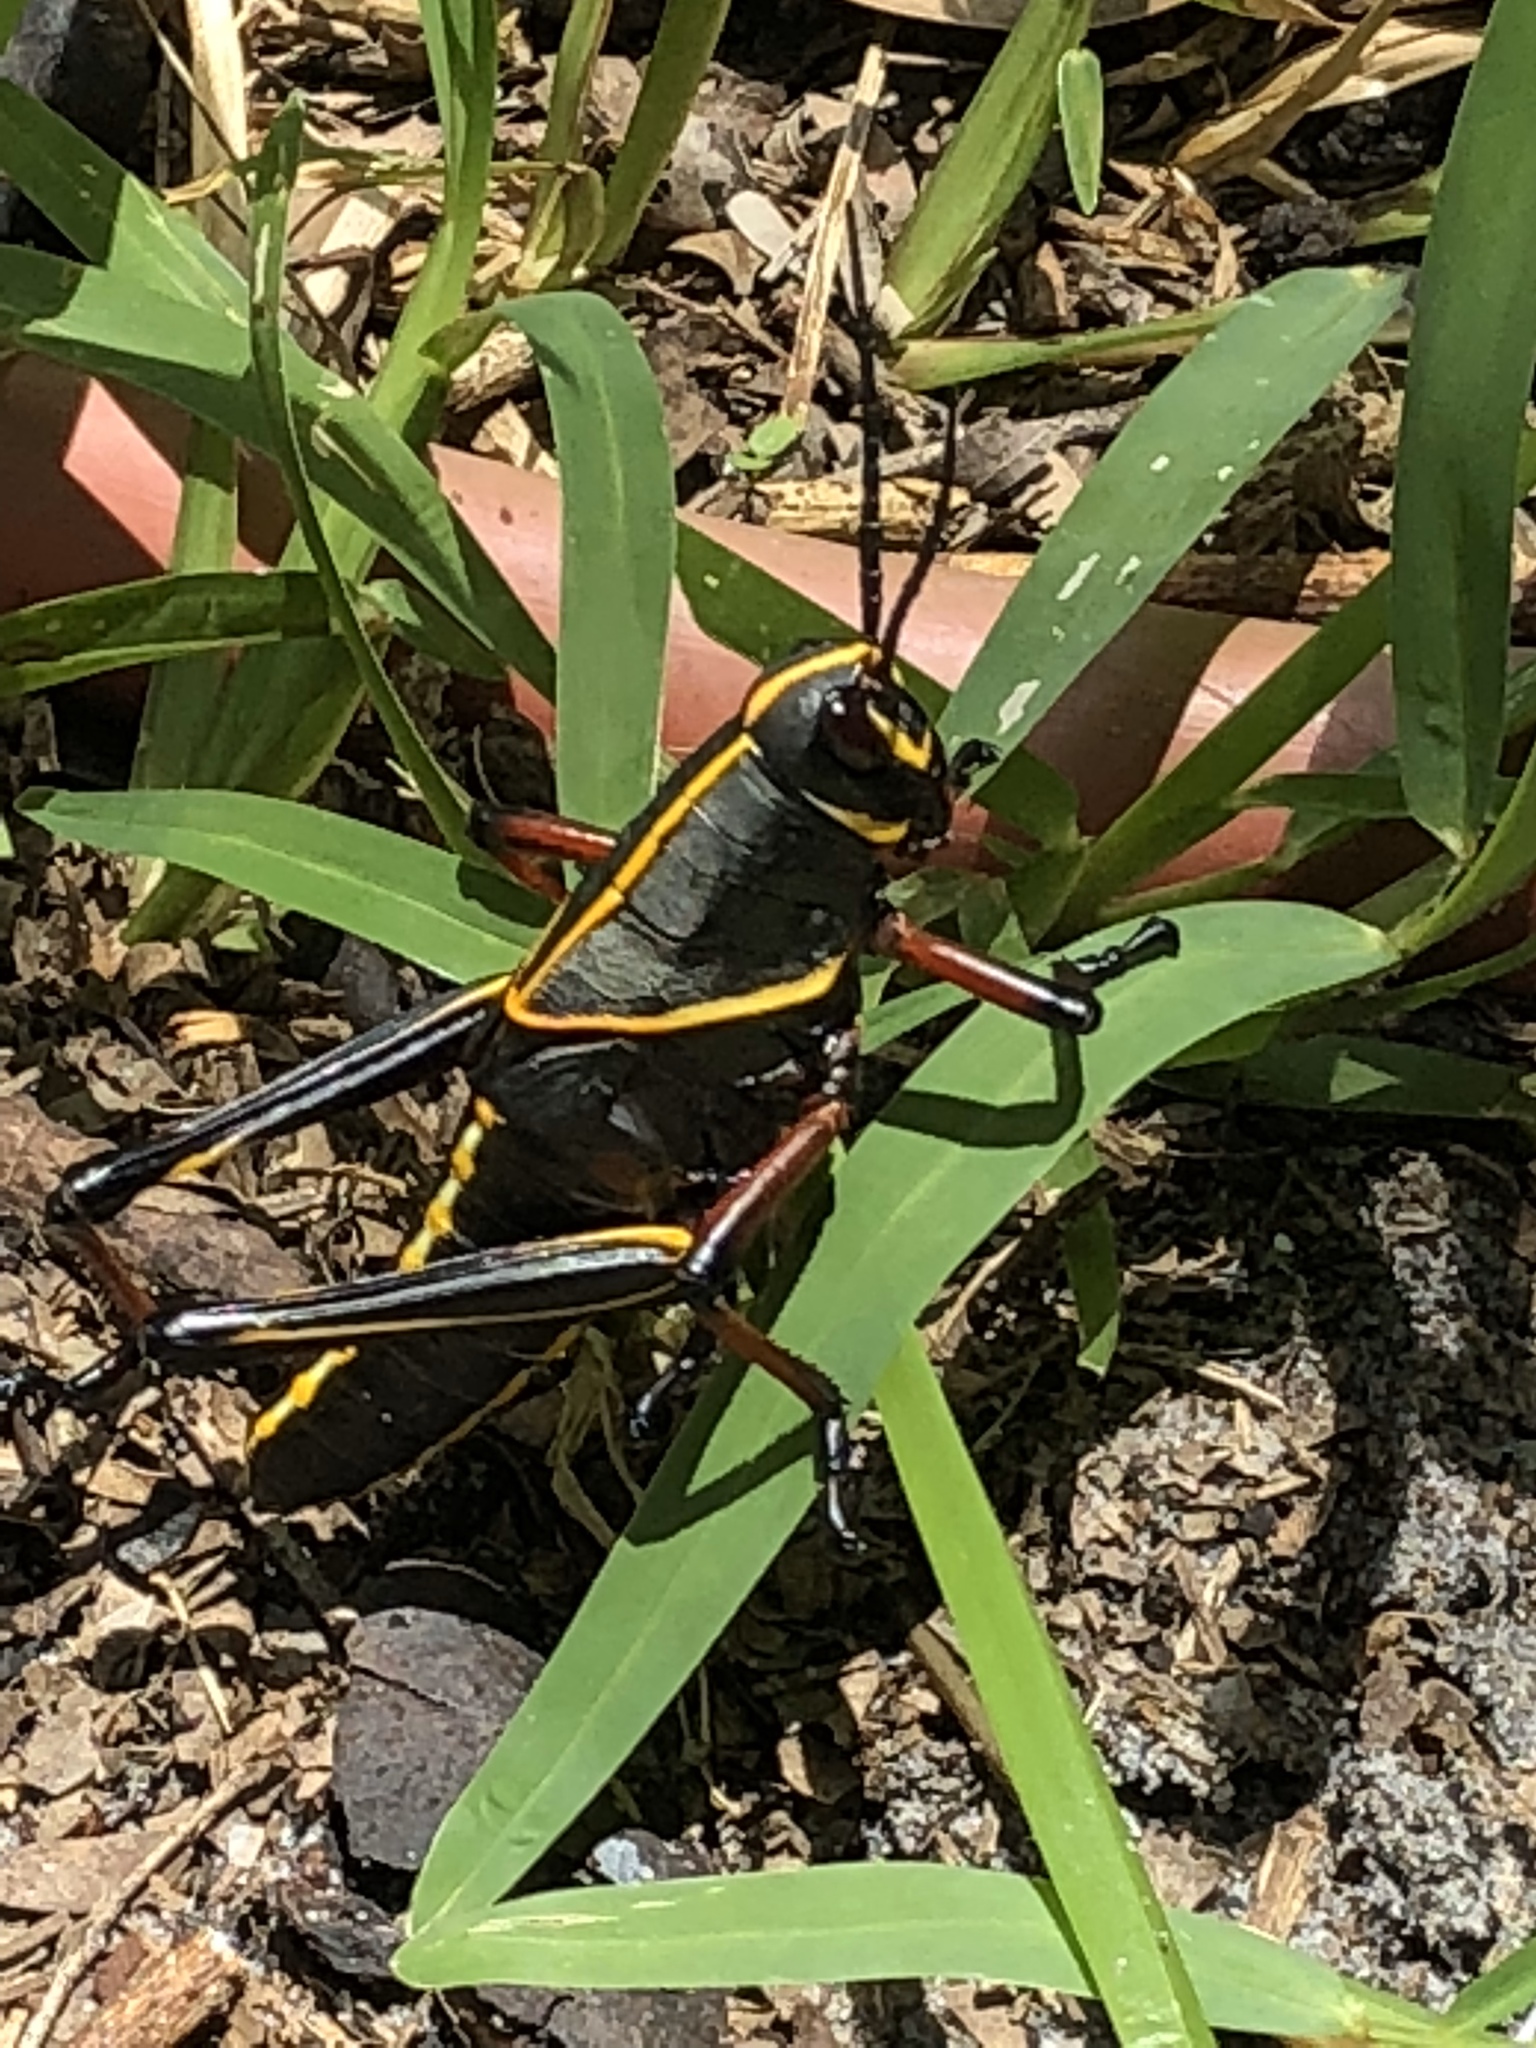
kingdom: Animalia
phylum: Arthropoda
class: Insecta
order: Orthoptera
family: Romaleidae
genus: Romalea
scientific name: Romalea microptera
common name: Eastern lubber grasshopper
